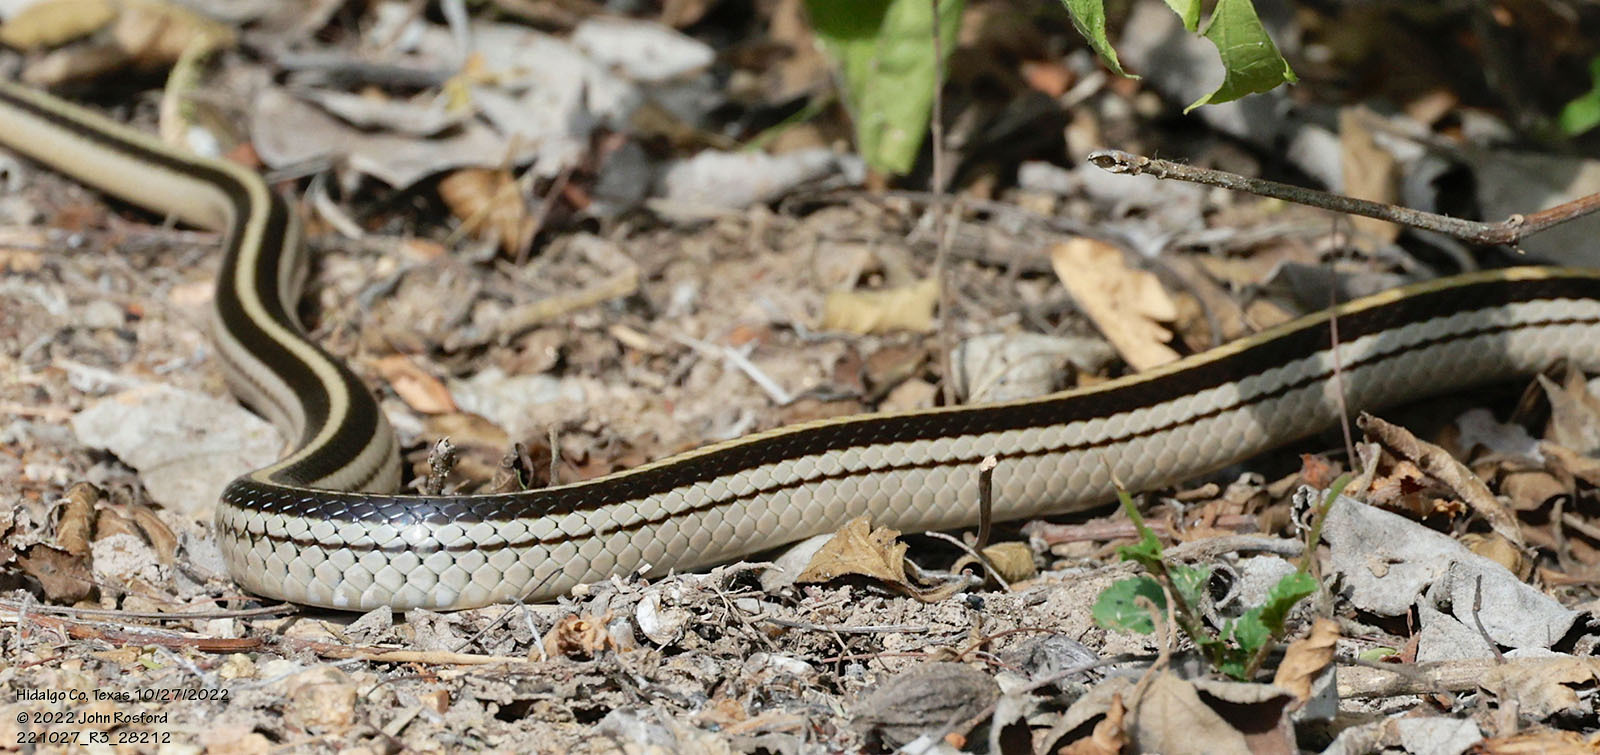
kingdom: Animalia
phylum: Chordata
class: Squamata
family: Colubridae
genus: Salvadora
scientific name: Salvadora lineata
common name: Texas patchnose snake
